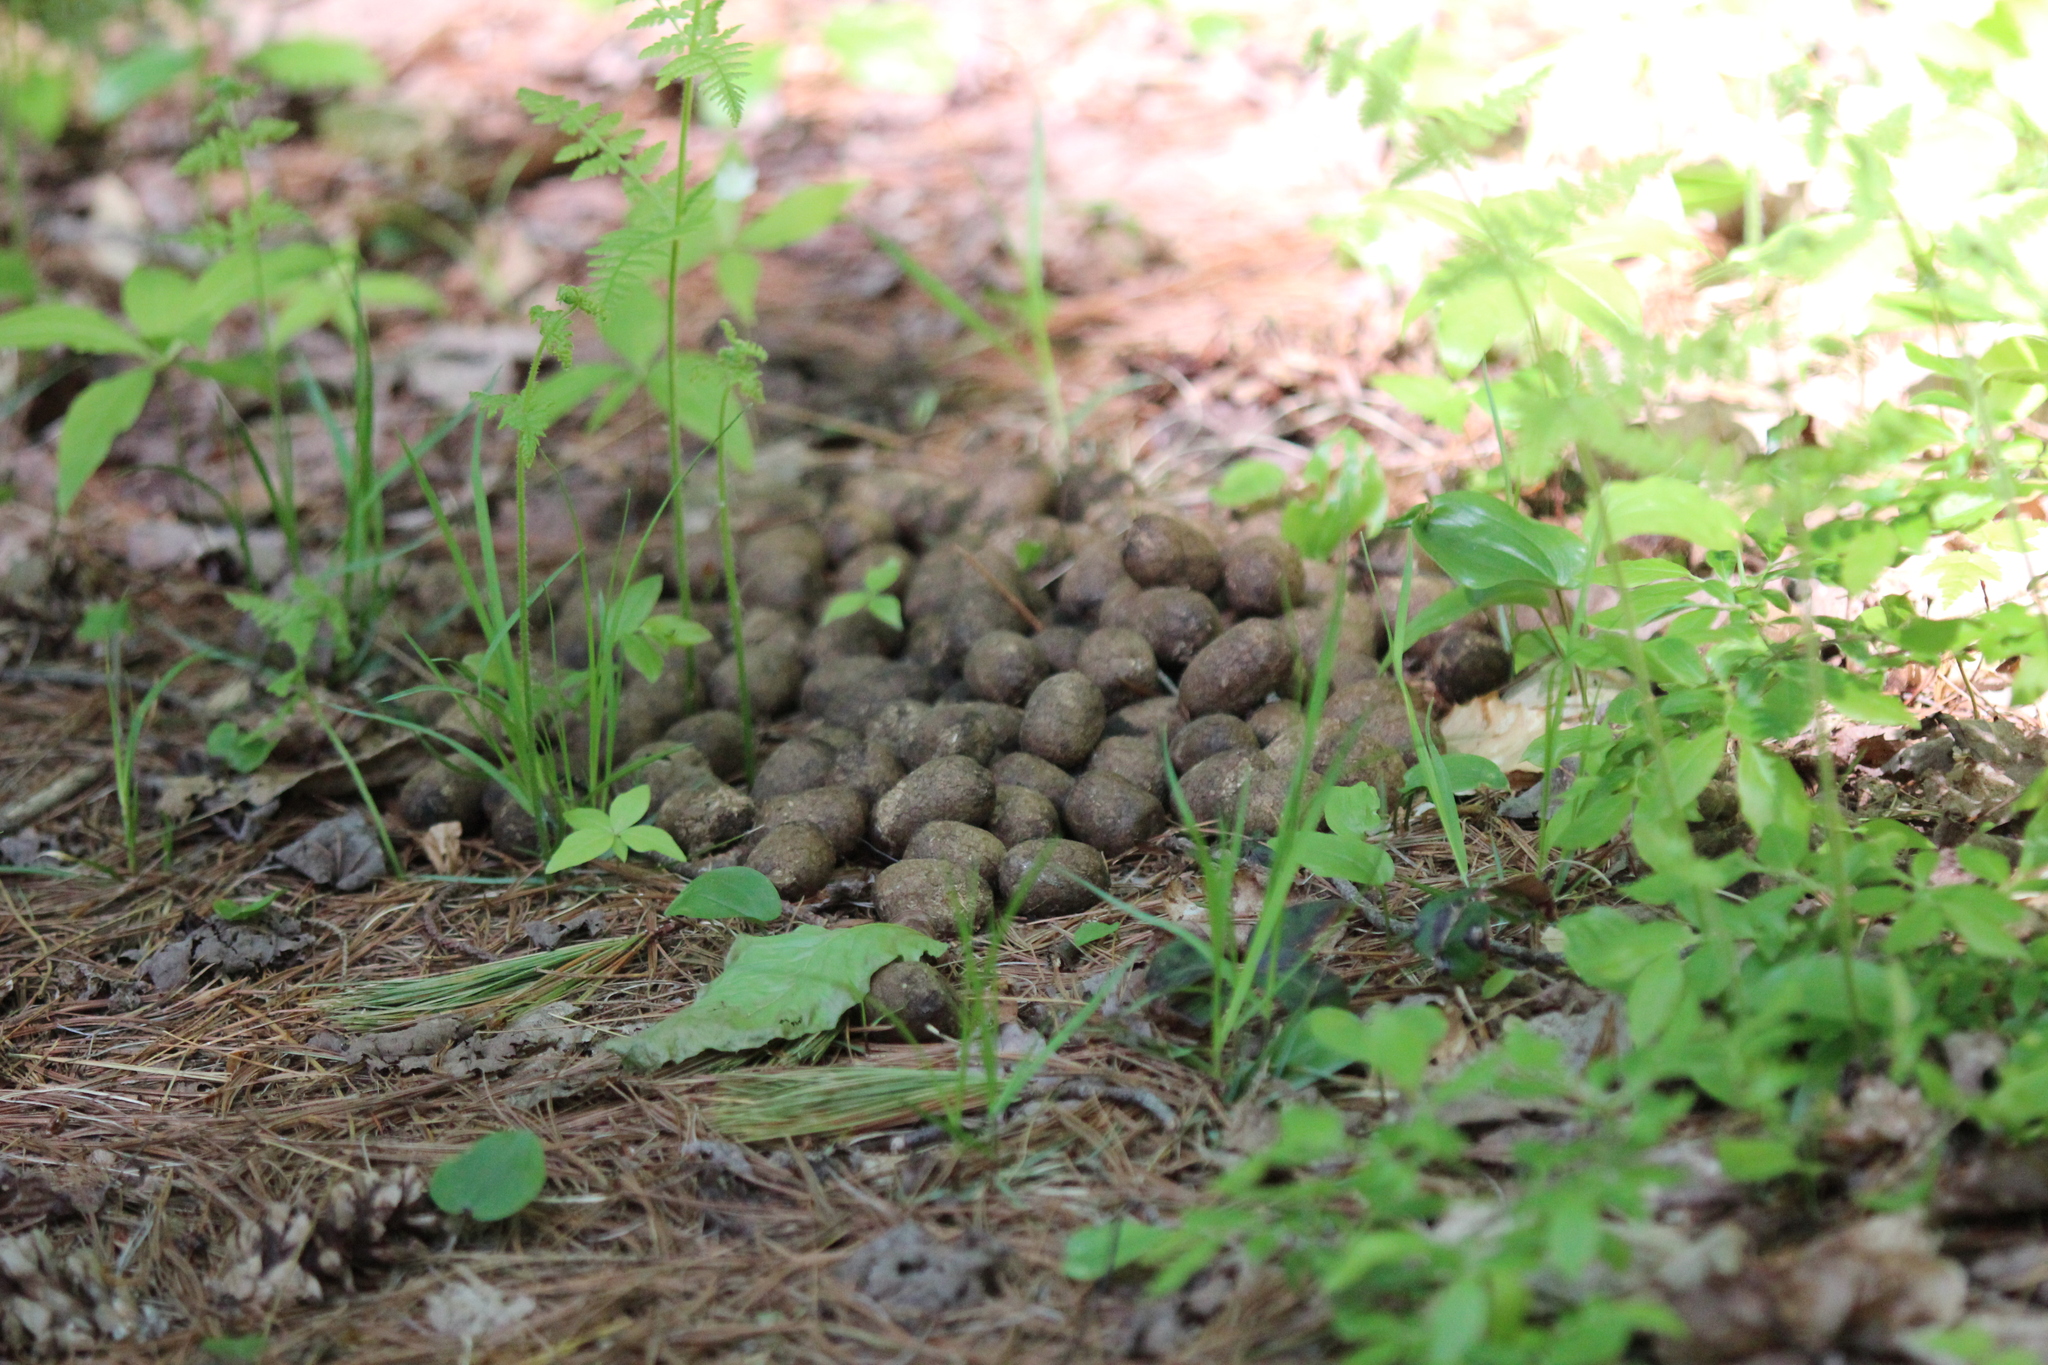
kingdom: Animalia
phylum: Chordata
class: Mammalia
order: Artiodactyla
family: Cervidae
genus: Alces
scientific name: Alces alces
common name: Moose
